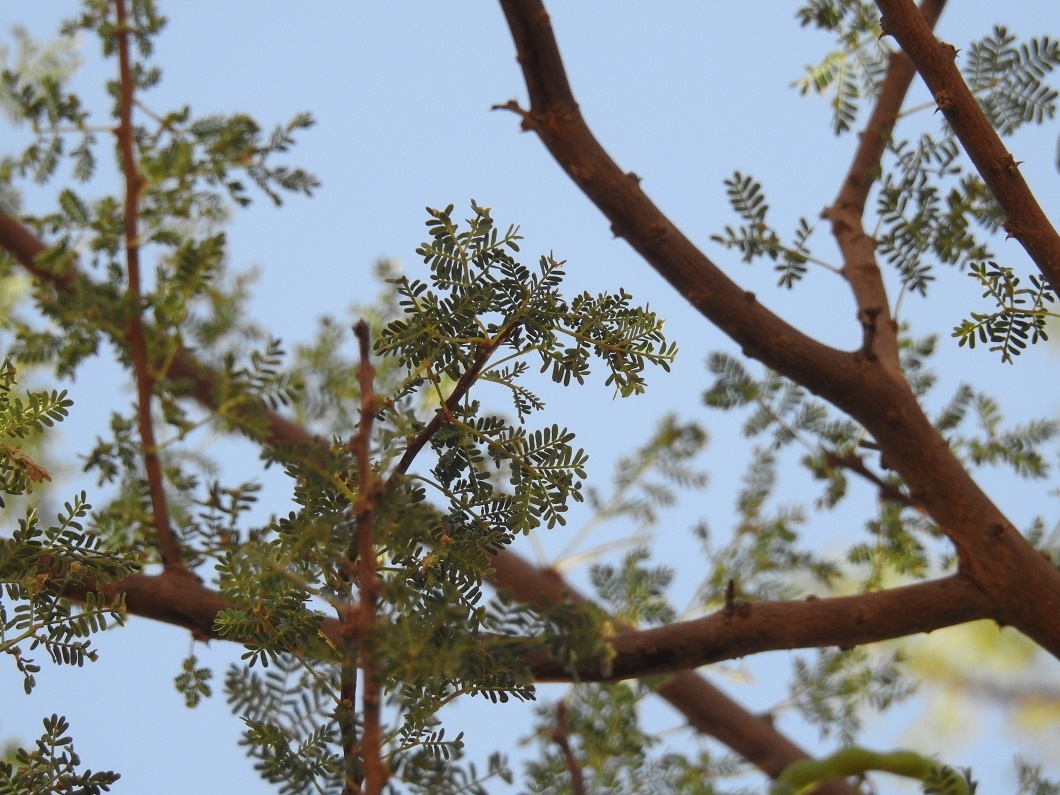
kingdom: Plantae
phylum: Tracheophyta
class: Magnoliopsida
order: Fabales
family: Fabaceae
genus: Vachellia
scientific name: Vachellia tortilis
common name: Umbrella thorn acacia
